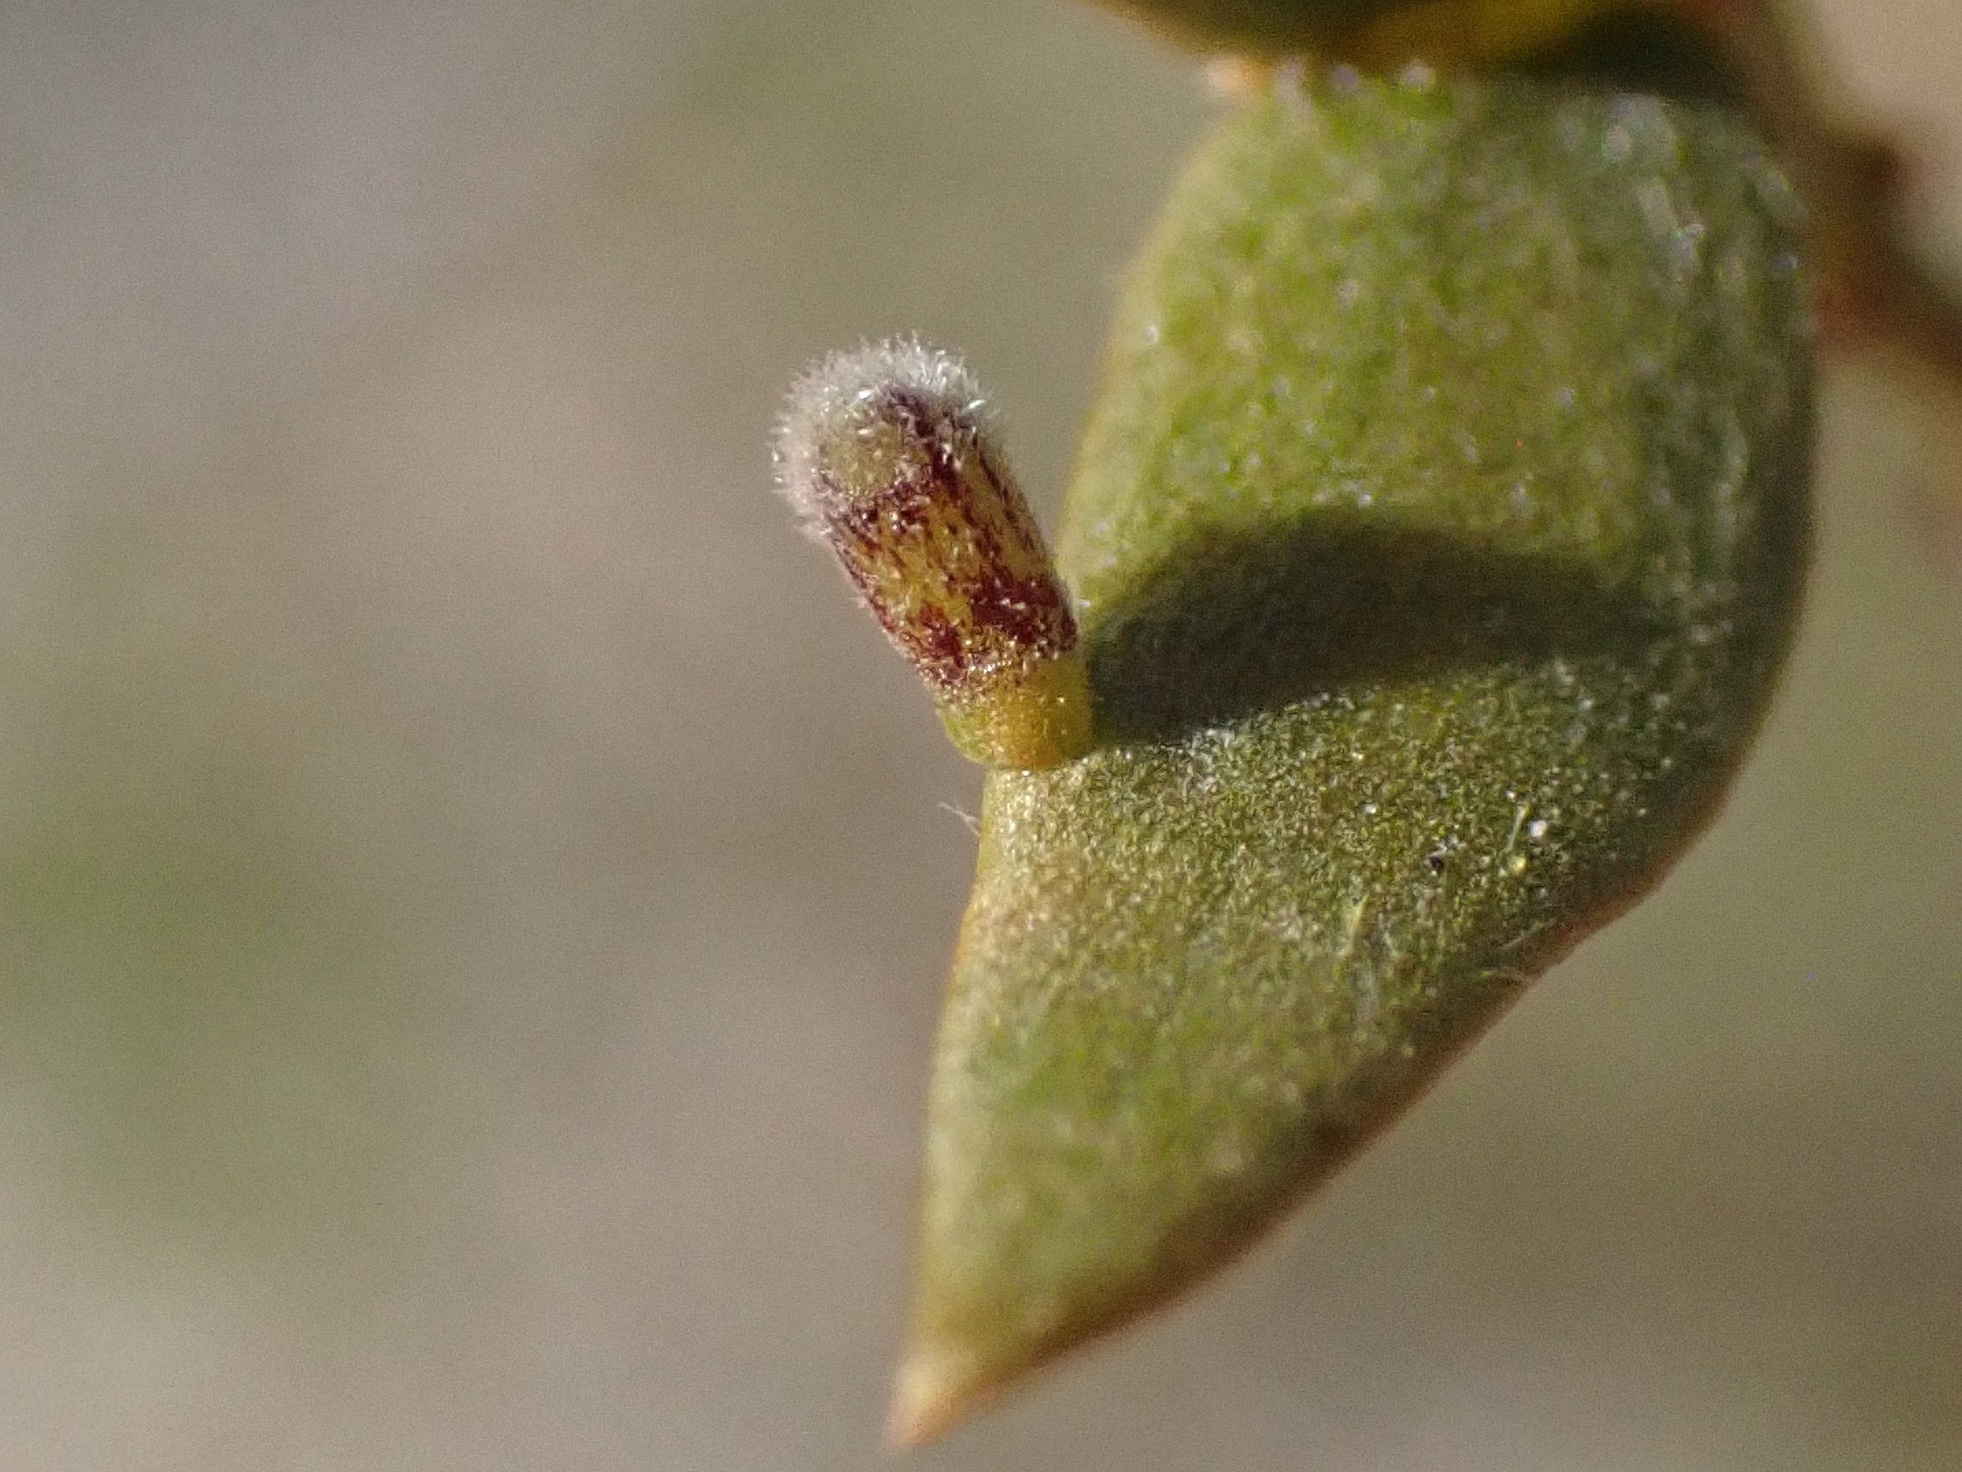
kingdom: Animalia
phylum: Arthropoda
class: Insecta
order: Diptera
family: Cecidomyiidae
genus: Asphondylia
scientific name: Asphondylia pilosa
